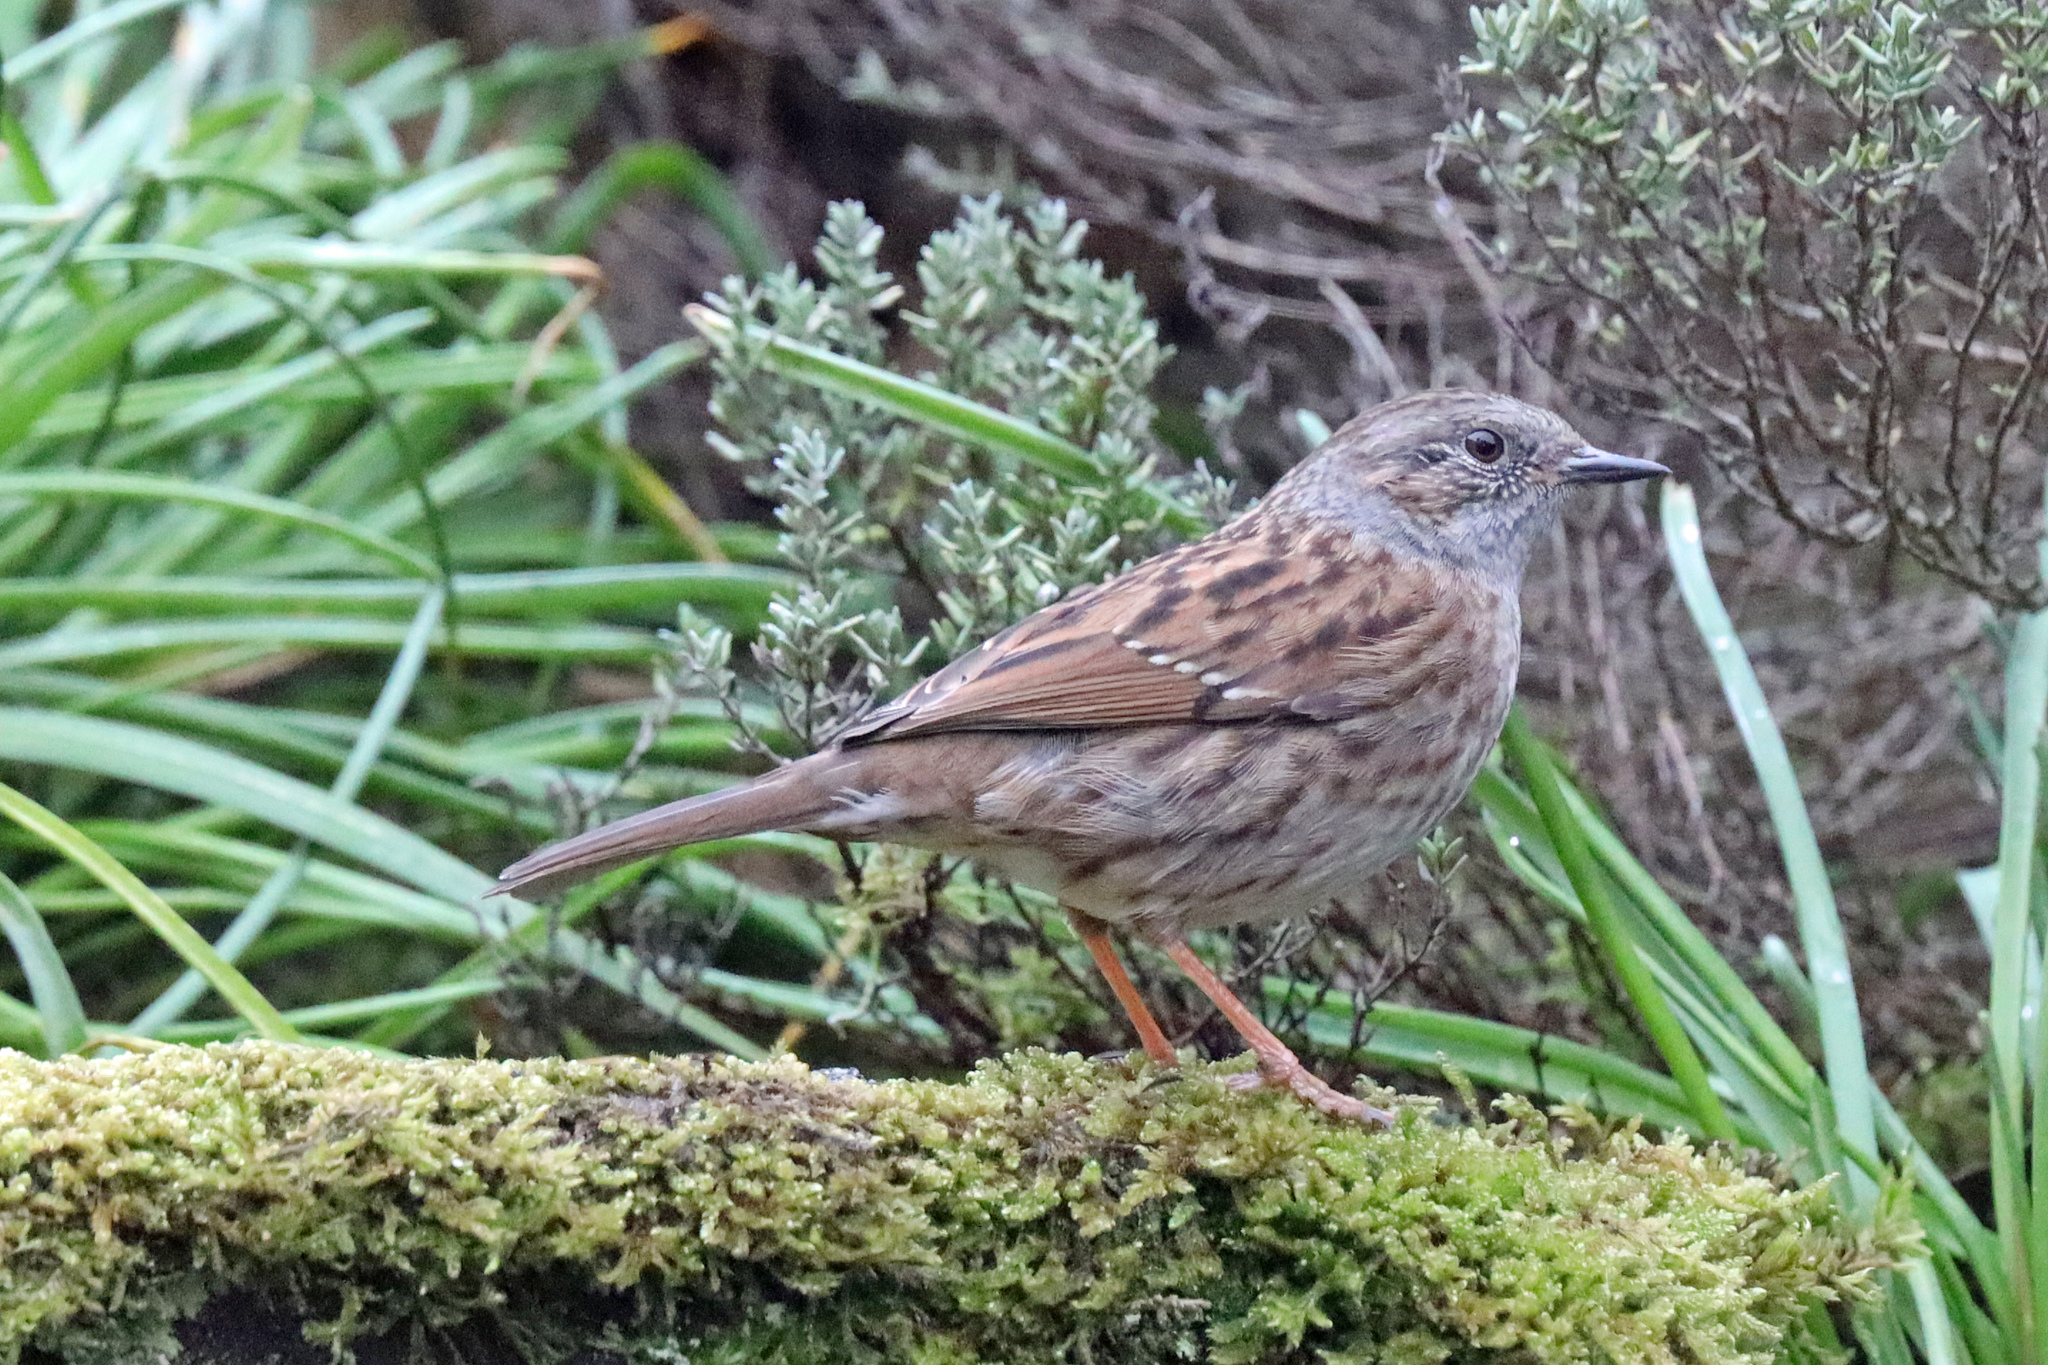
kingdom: Animalia
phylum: Chordata
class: Aves
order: Passeriformes
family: Prunellidae
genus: Prunella
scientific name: Prunella modularis
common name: Dunnock
